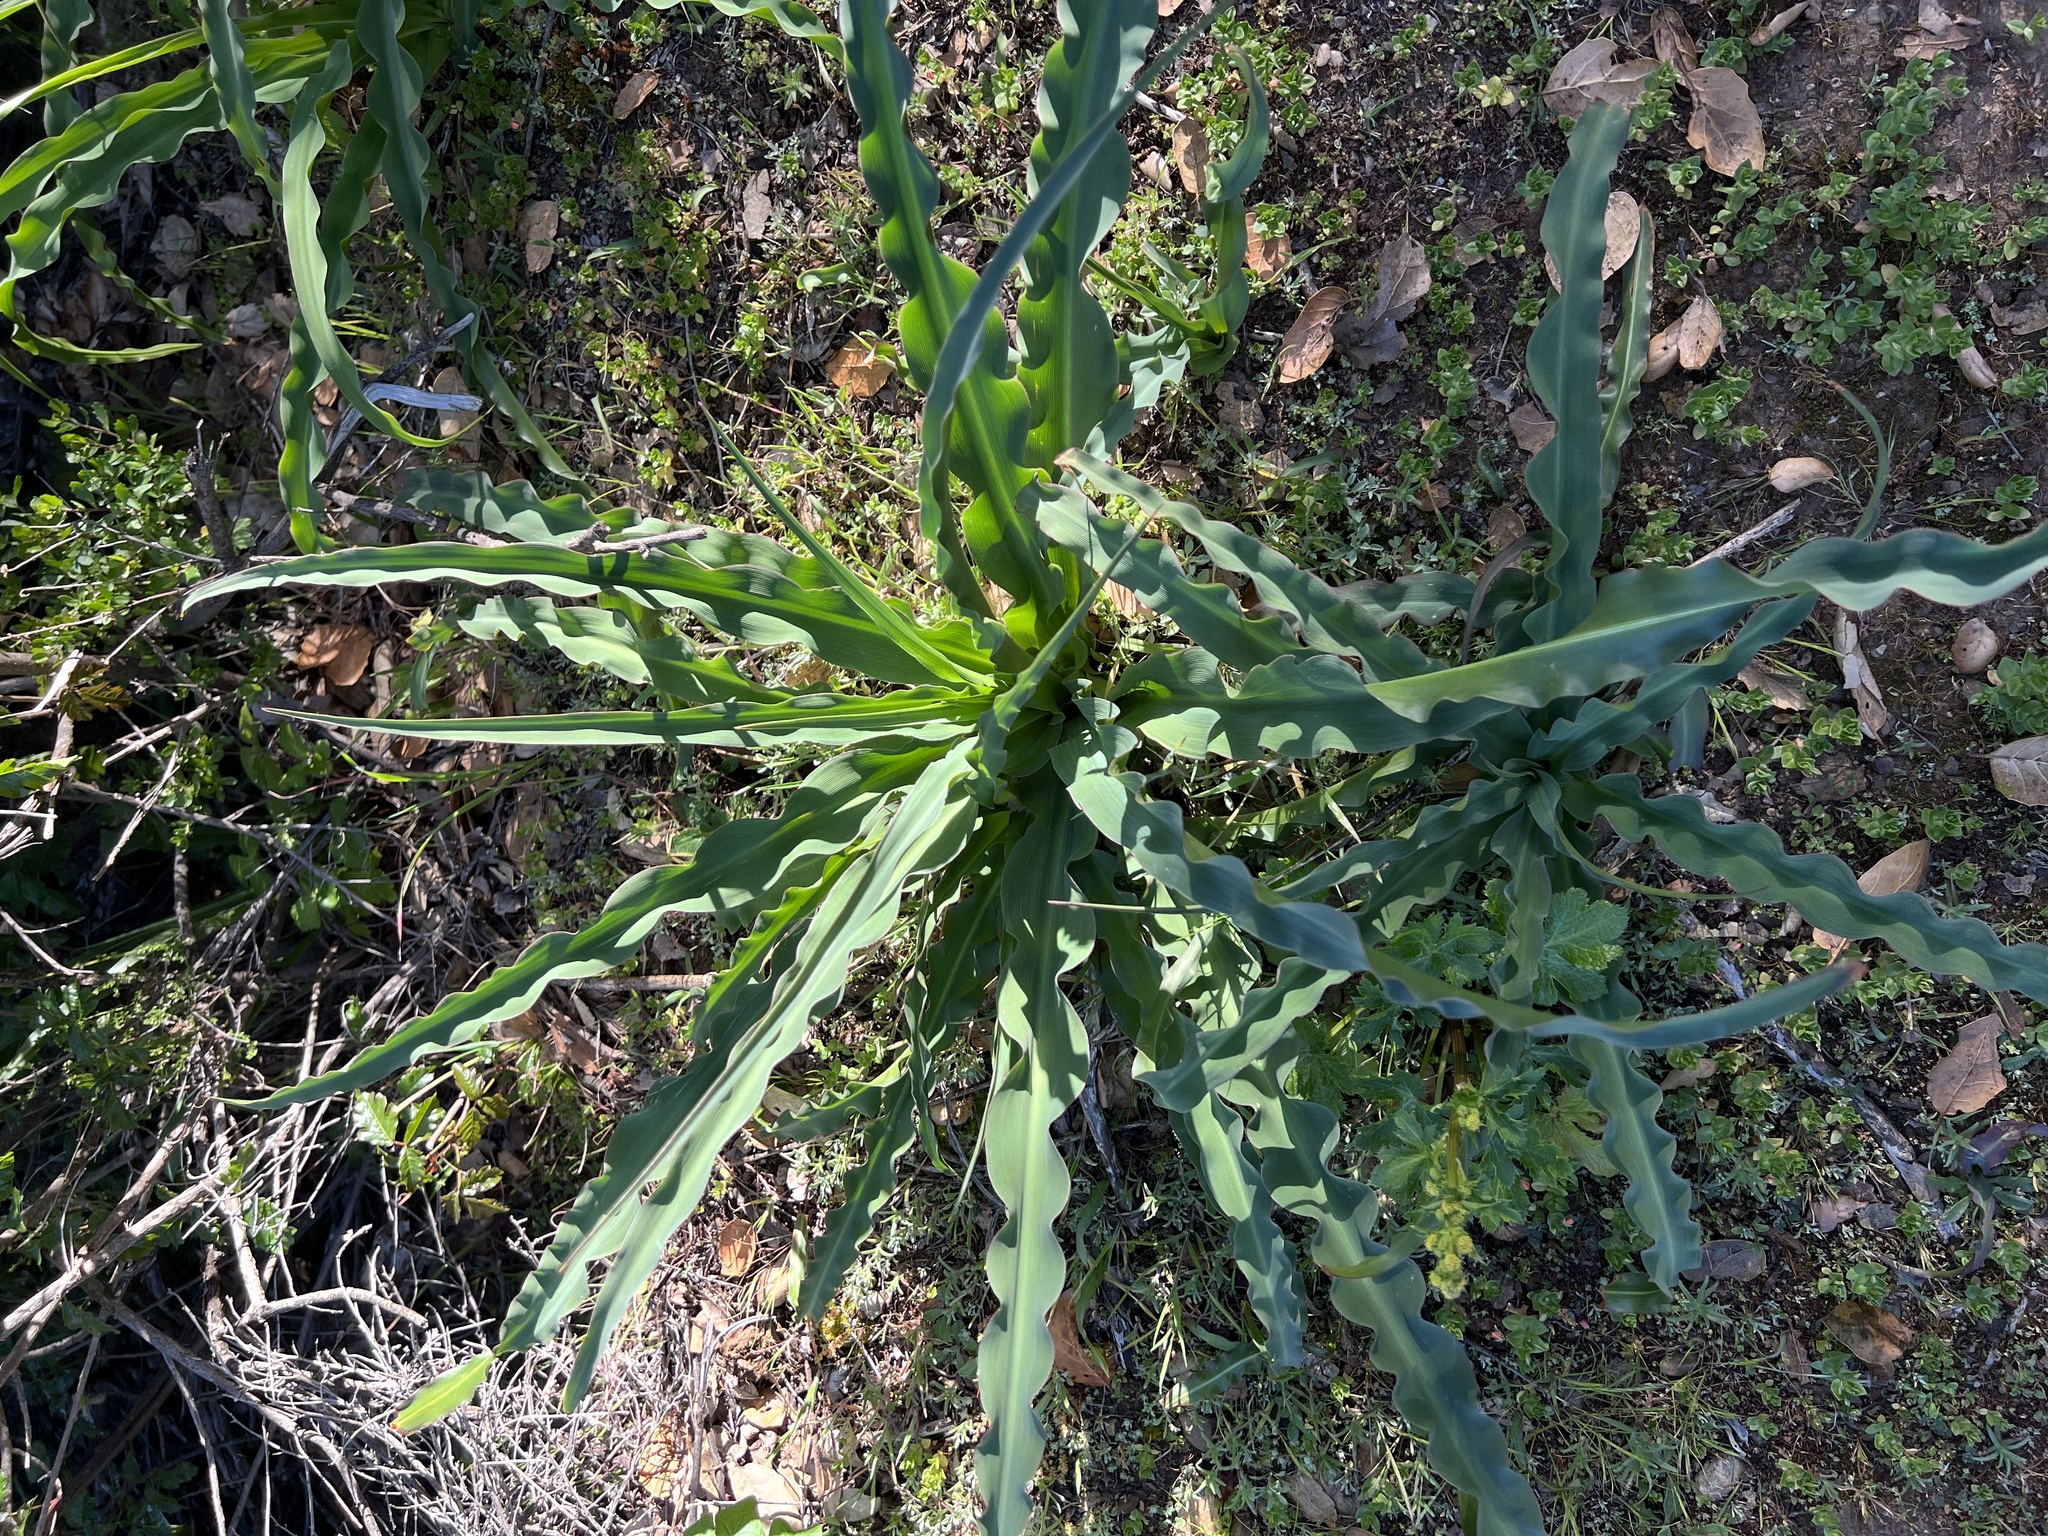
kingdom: Plantae
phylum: Tracheophyta
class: Liliopsida
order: Asparagales
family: Asparagaceae
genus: Chlorogalum
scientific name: Chlorogalum pomeridianum
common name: Amole
